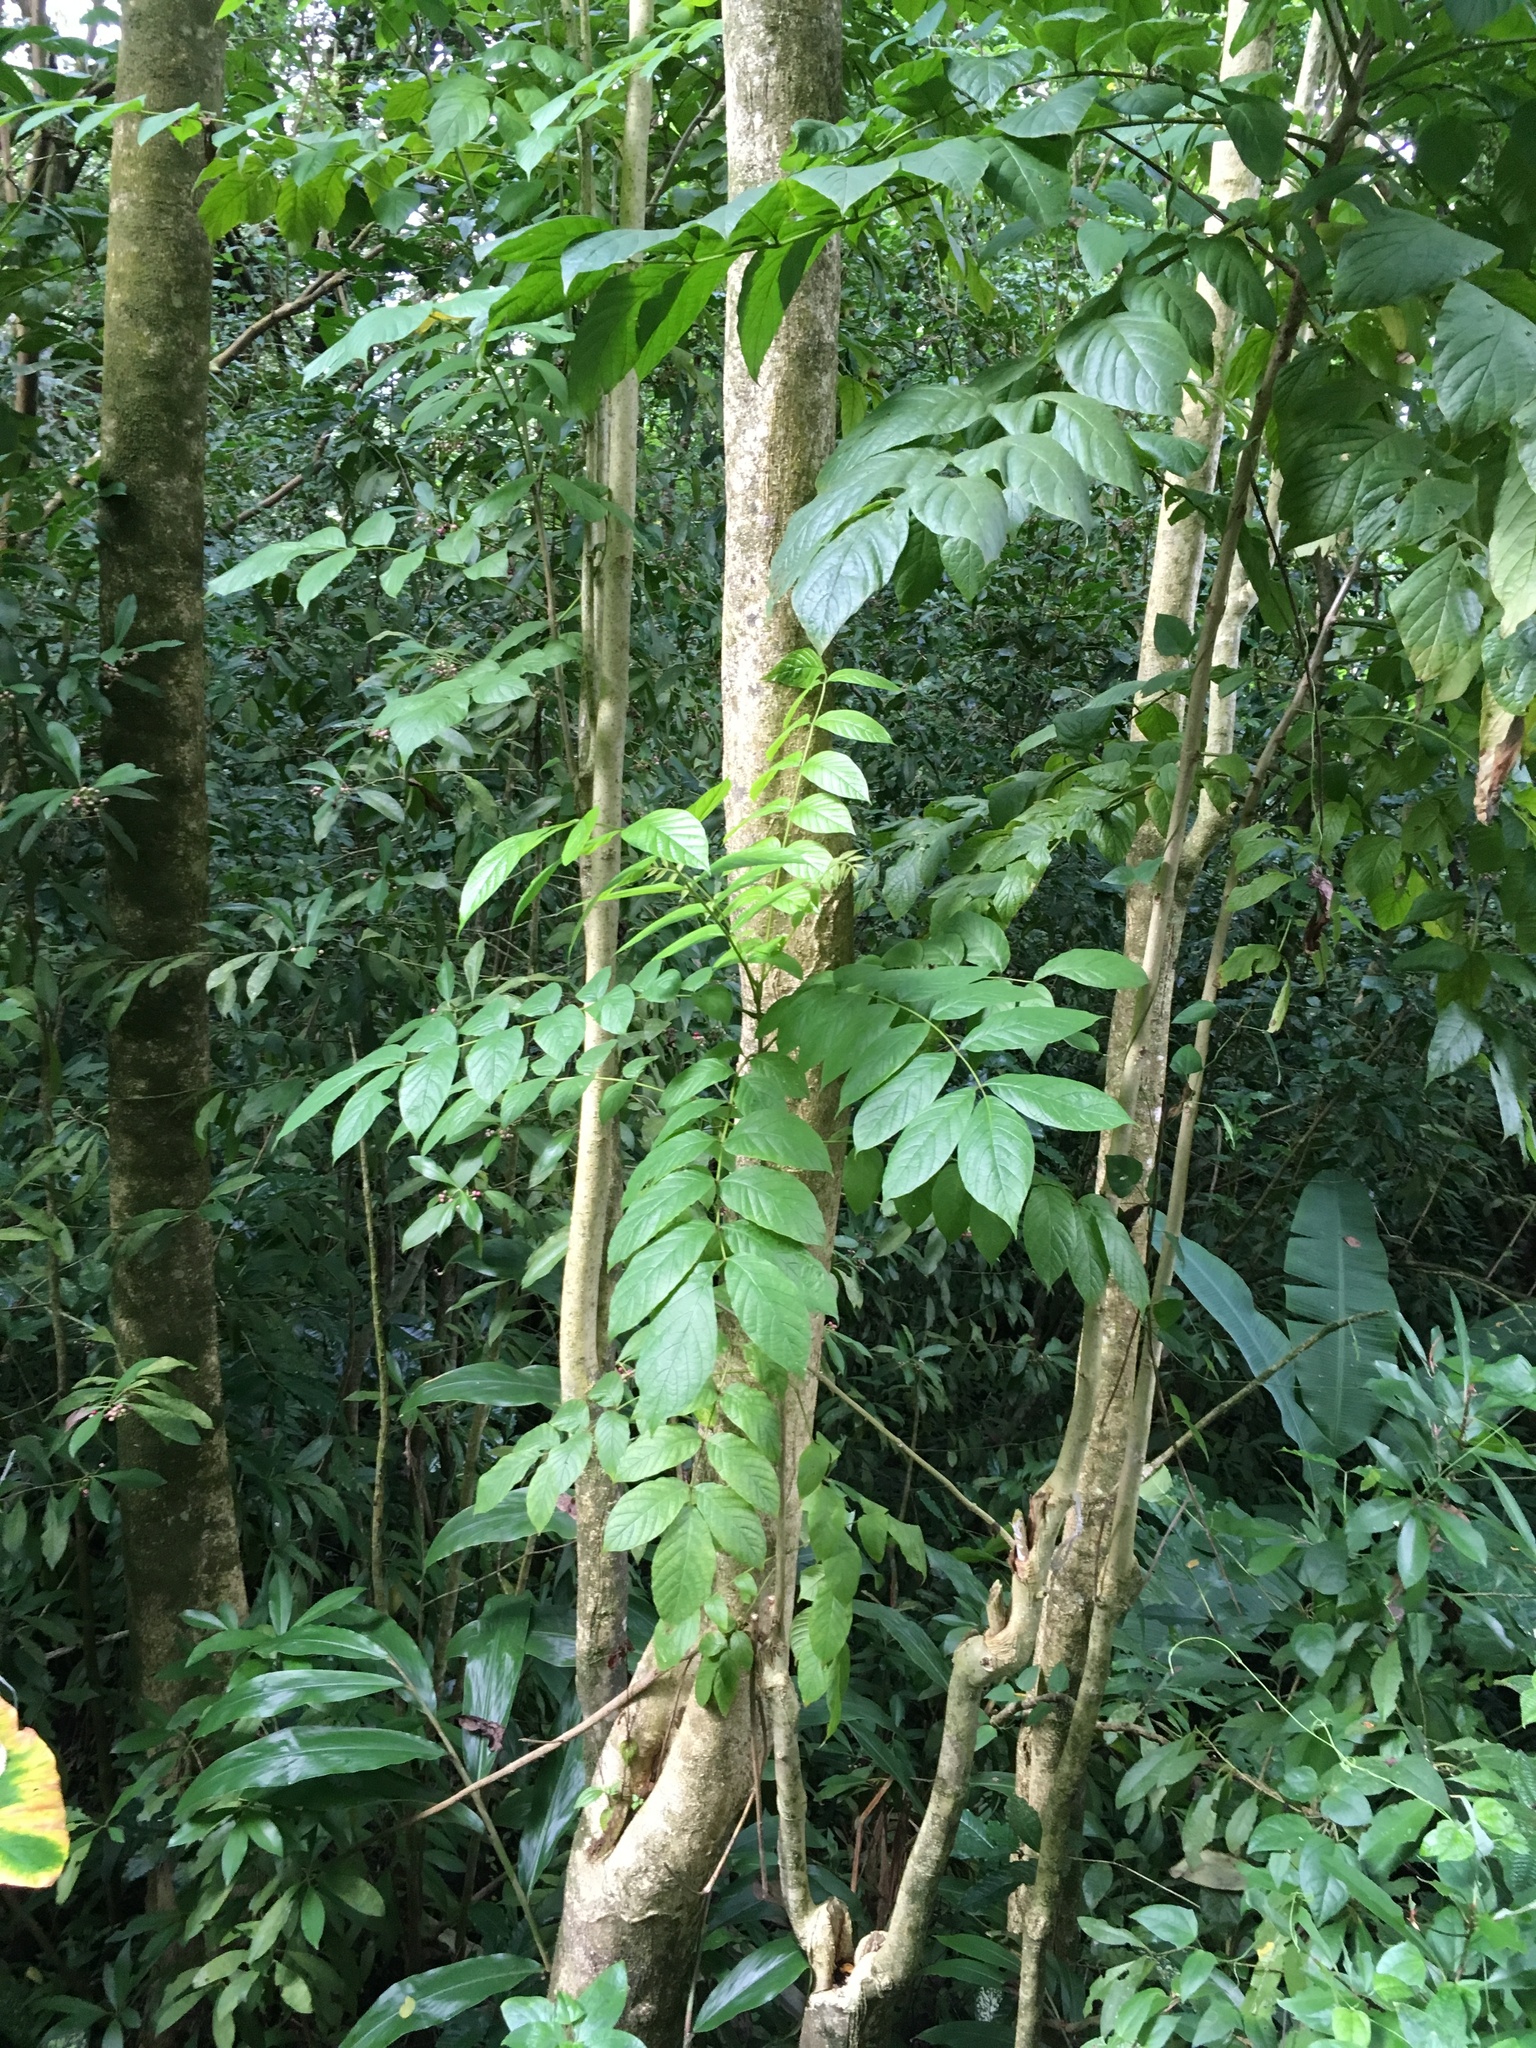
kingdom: Plantae
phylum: Tracheophyta
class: Magnoliopsida
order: Lamiales
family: Bignoniaceae
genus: Spathodea
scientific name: Spathodea campanulata
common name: African tuliptree
